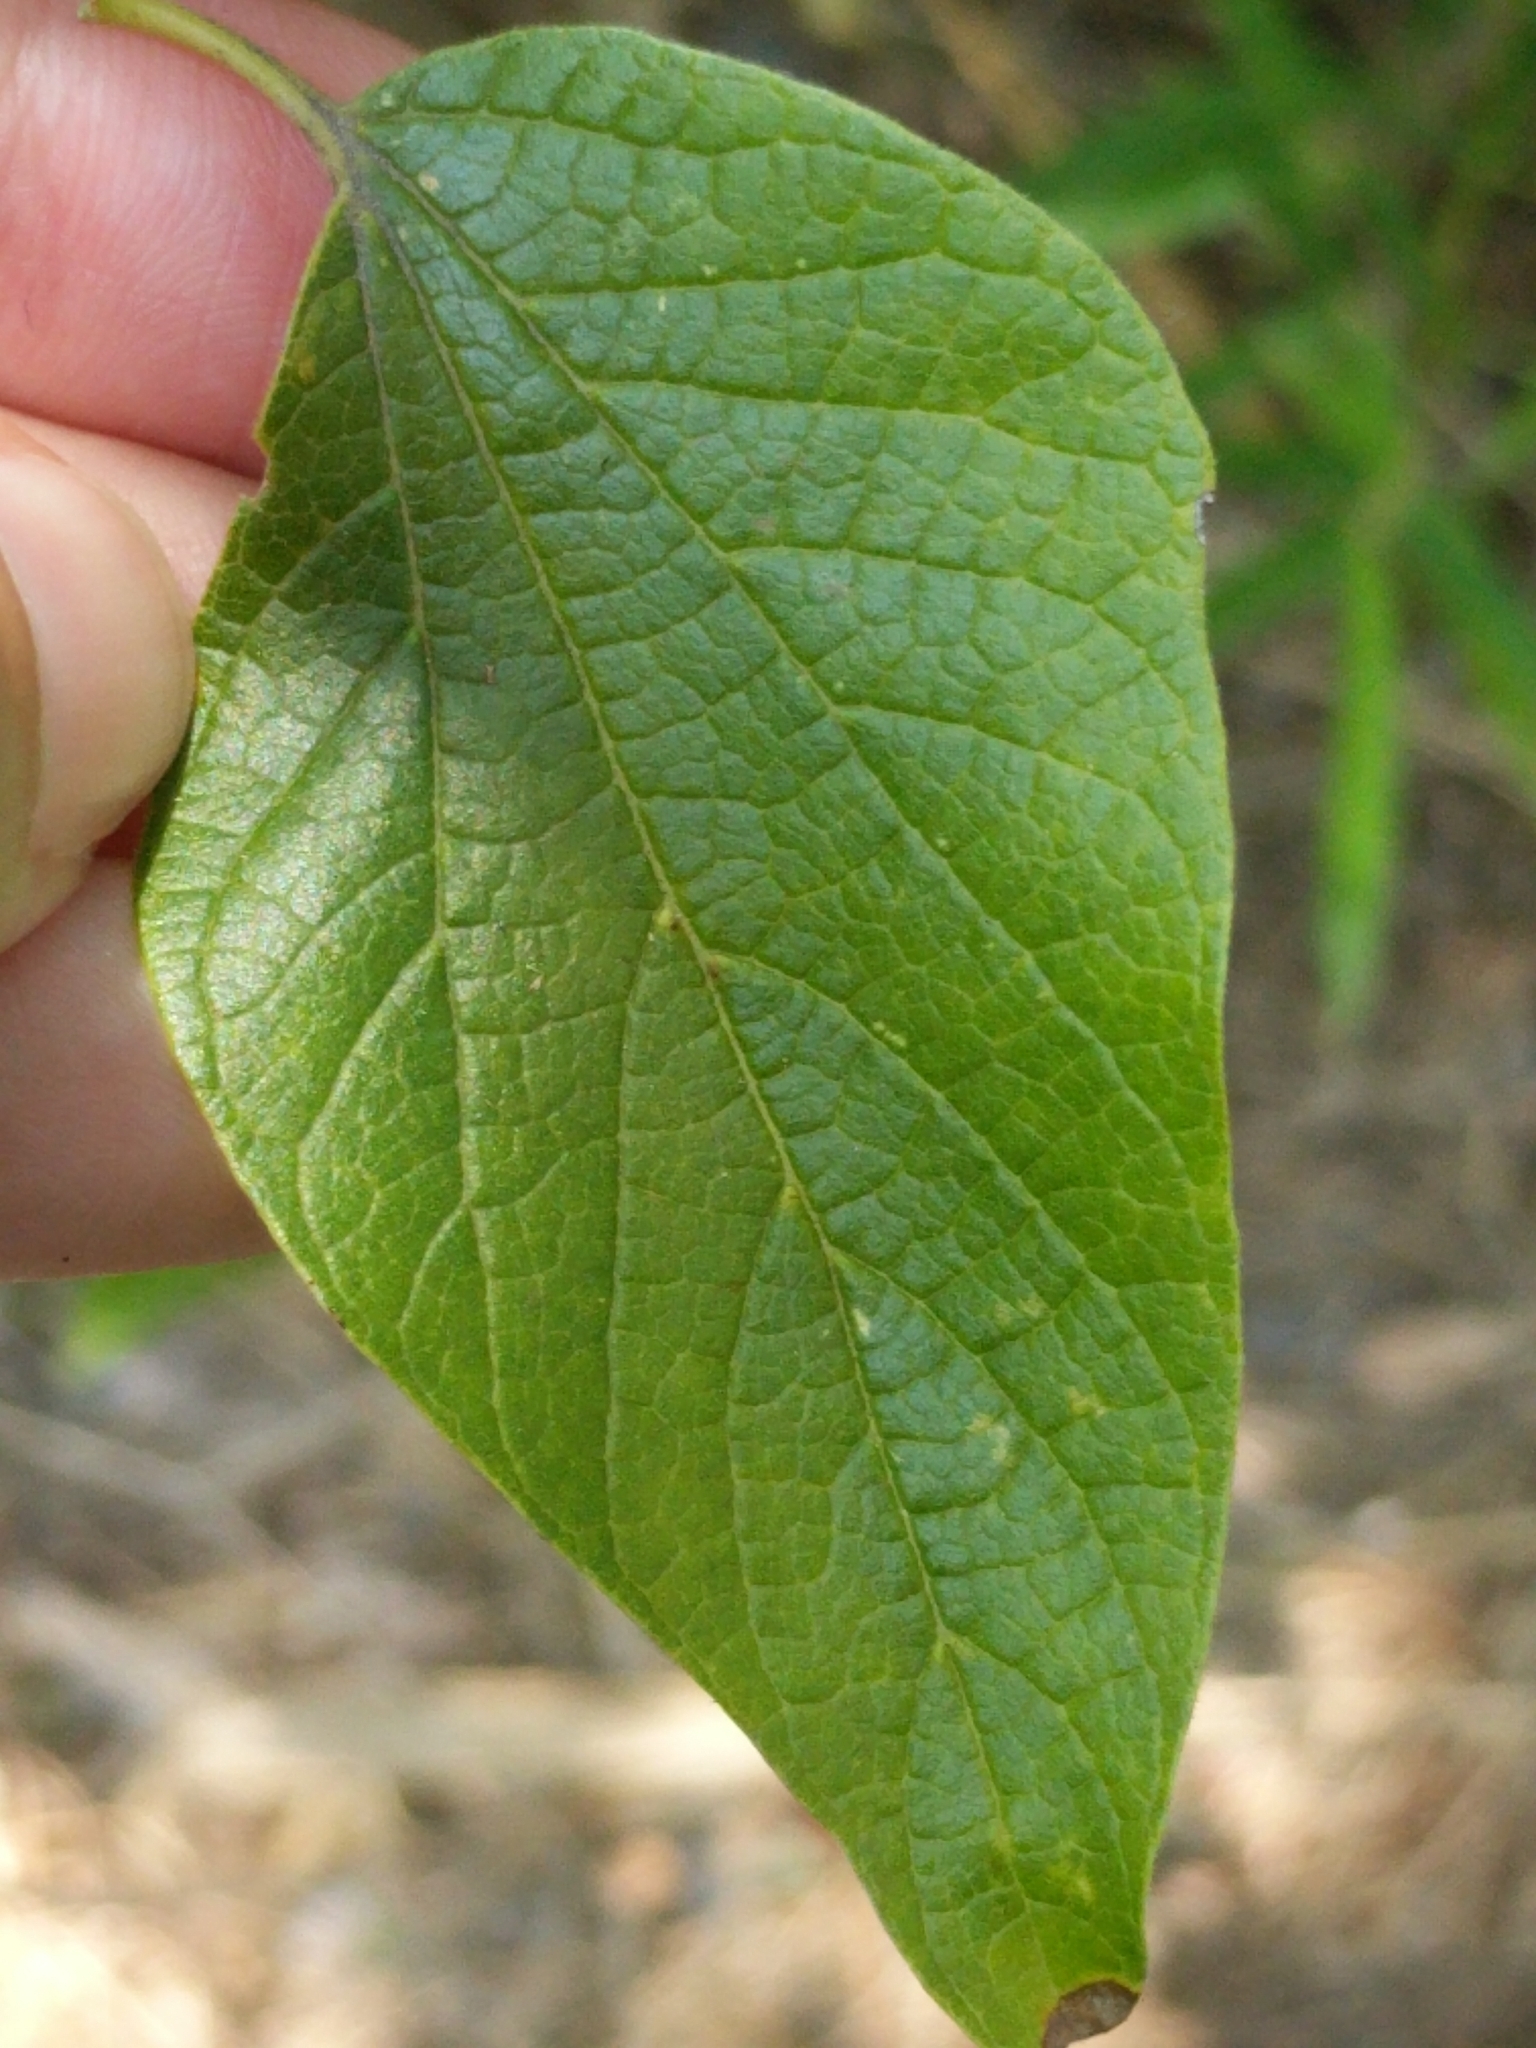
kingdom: Plantae
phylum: Tracheophyta
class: Magnoliopsida
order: Rosales
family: Cannabaceae
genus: Celtis
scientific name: Celtis laevigata
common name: Sugarberry
